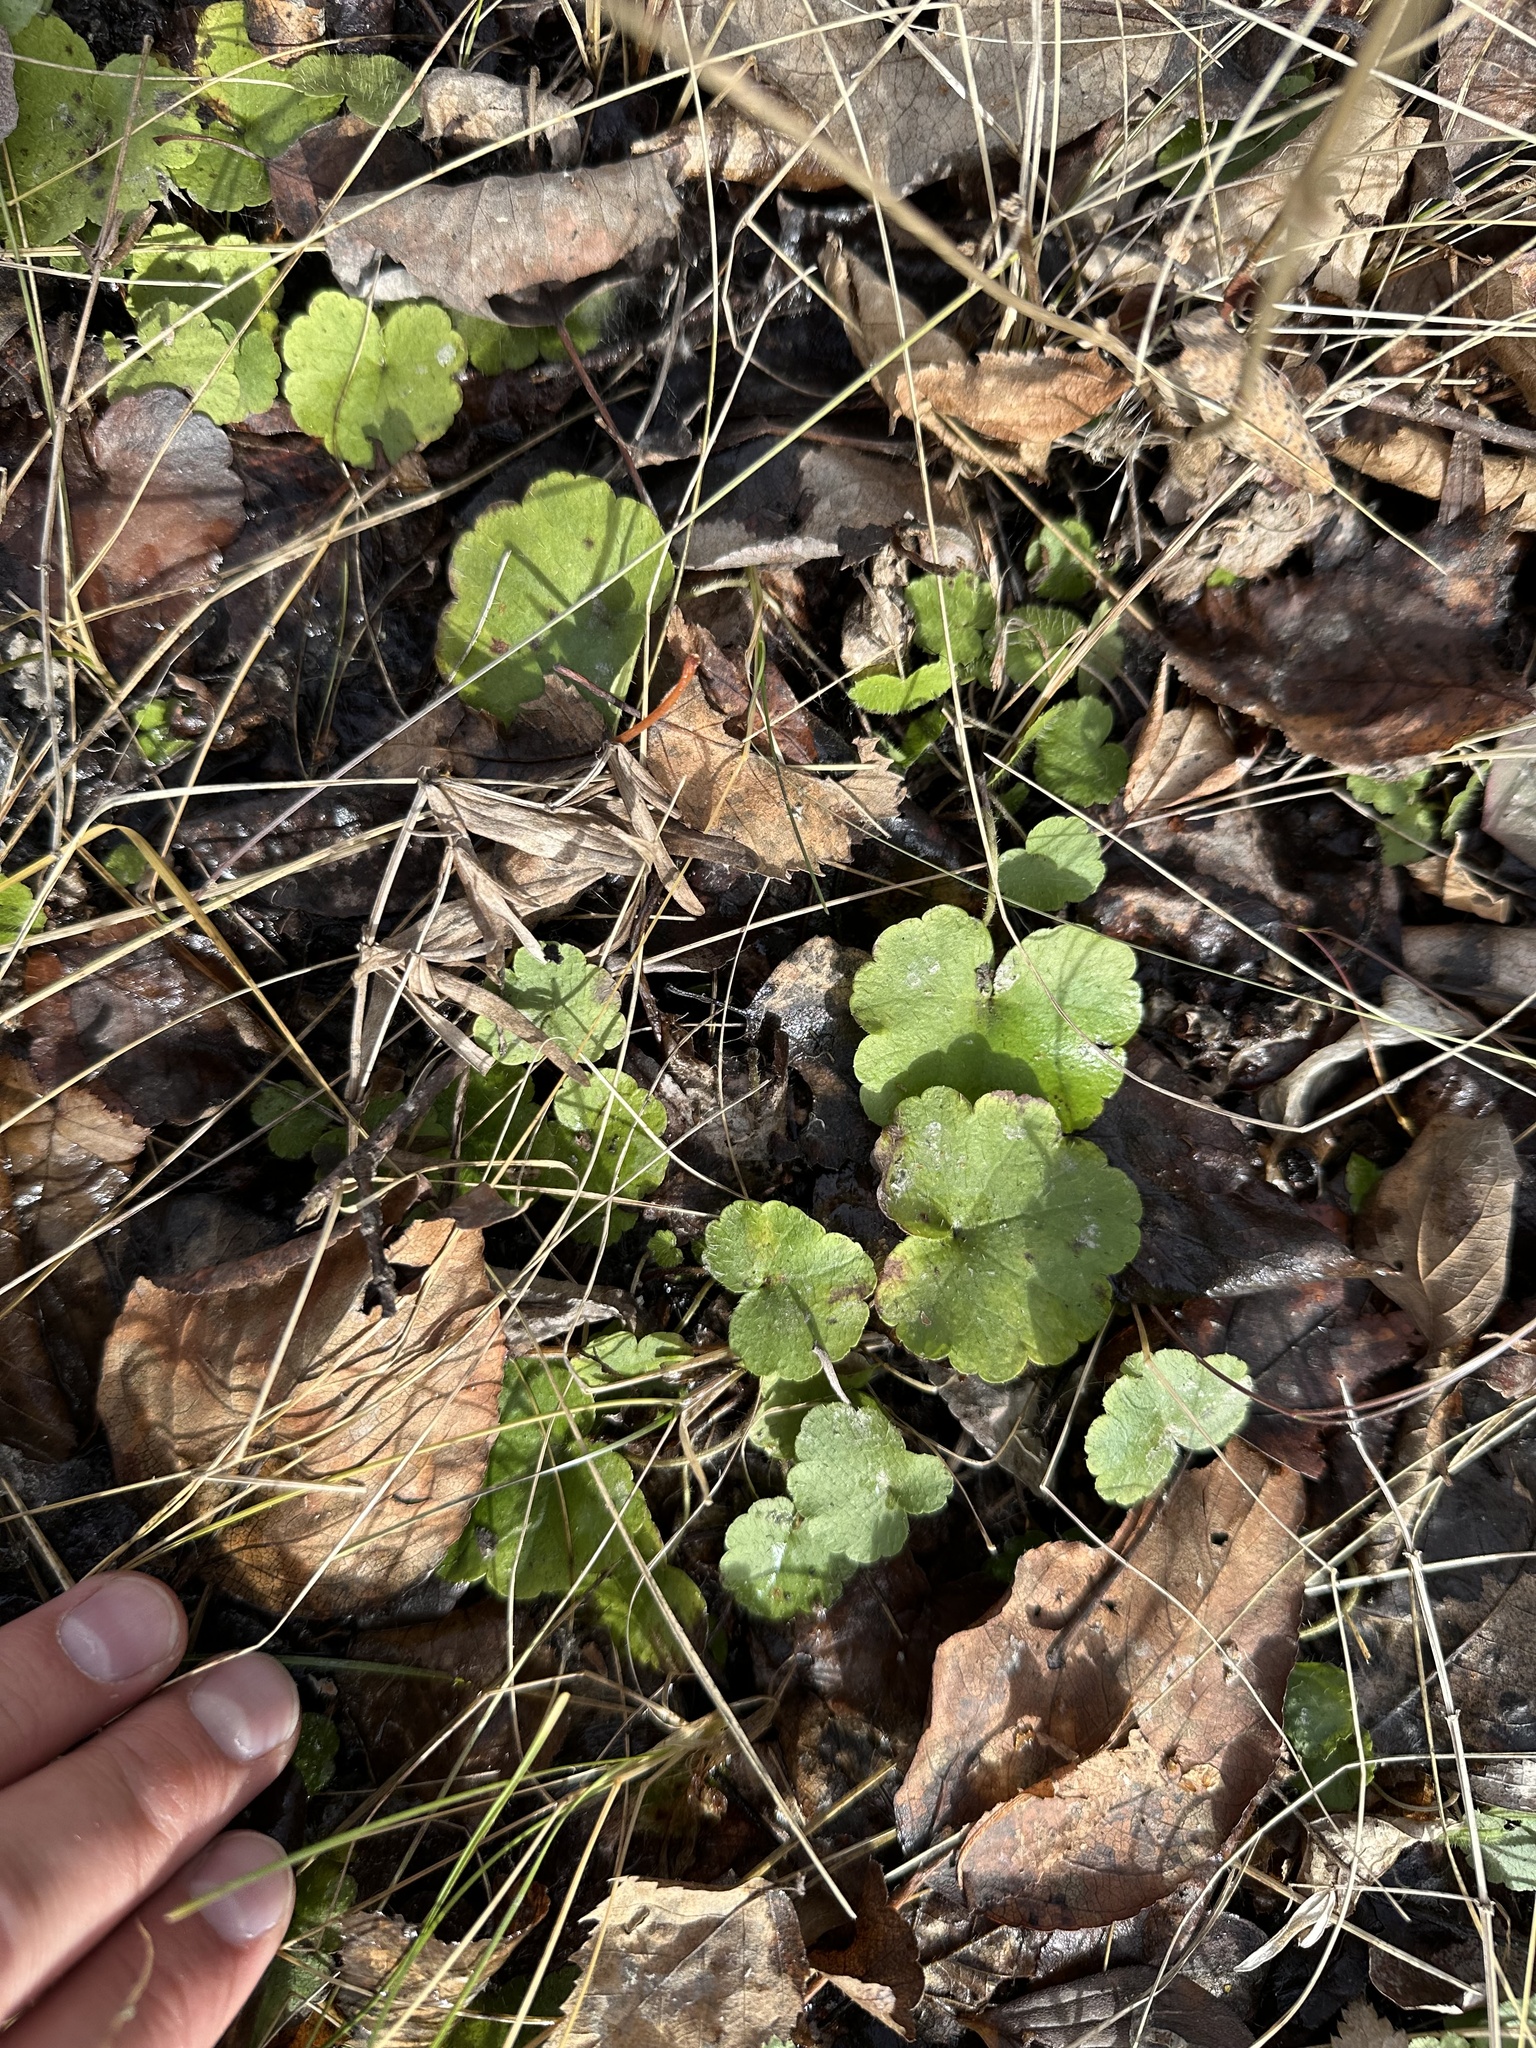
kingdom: Plantae
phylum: Tracheophyta
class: Magnoliopsida
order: Saxifragales
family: Saxifragaceae
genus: Mitella
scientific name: Mitella nuda
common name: Bare-stemmed bishop's-cap
